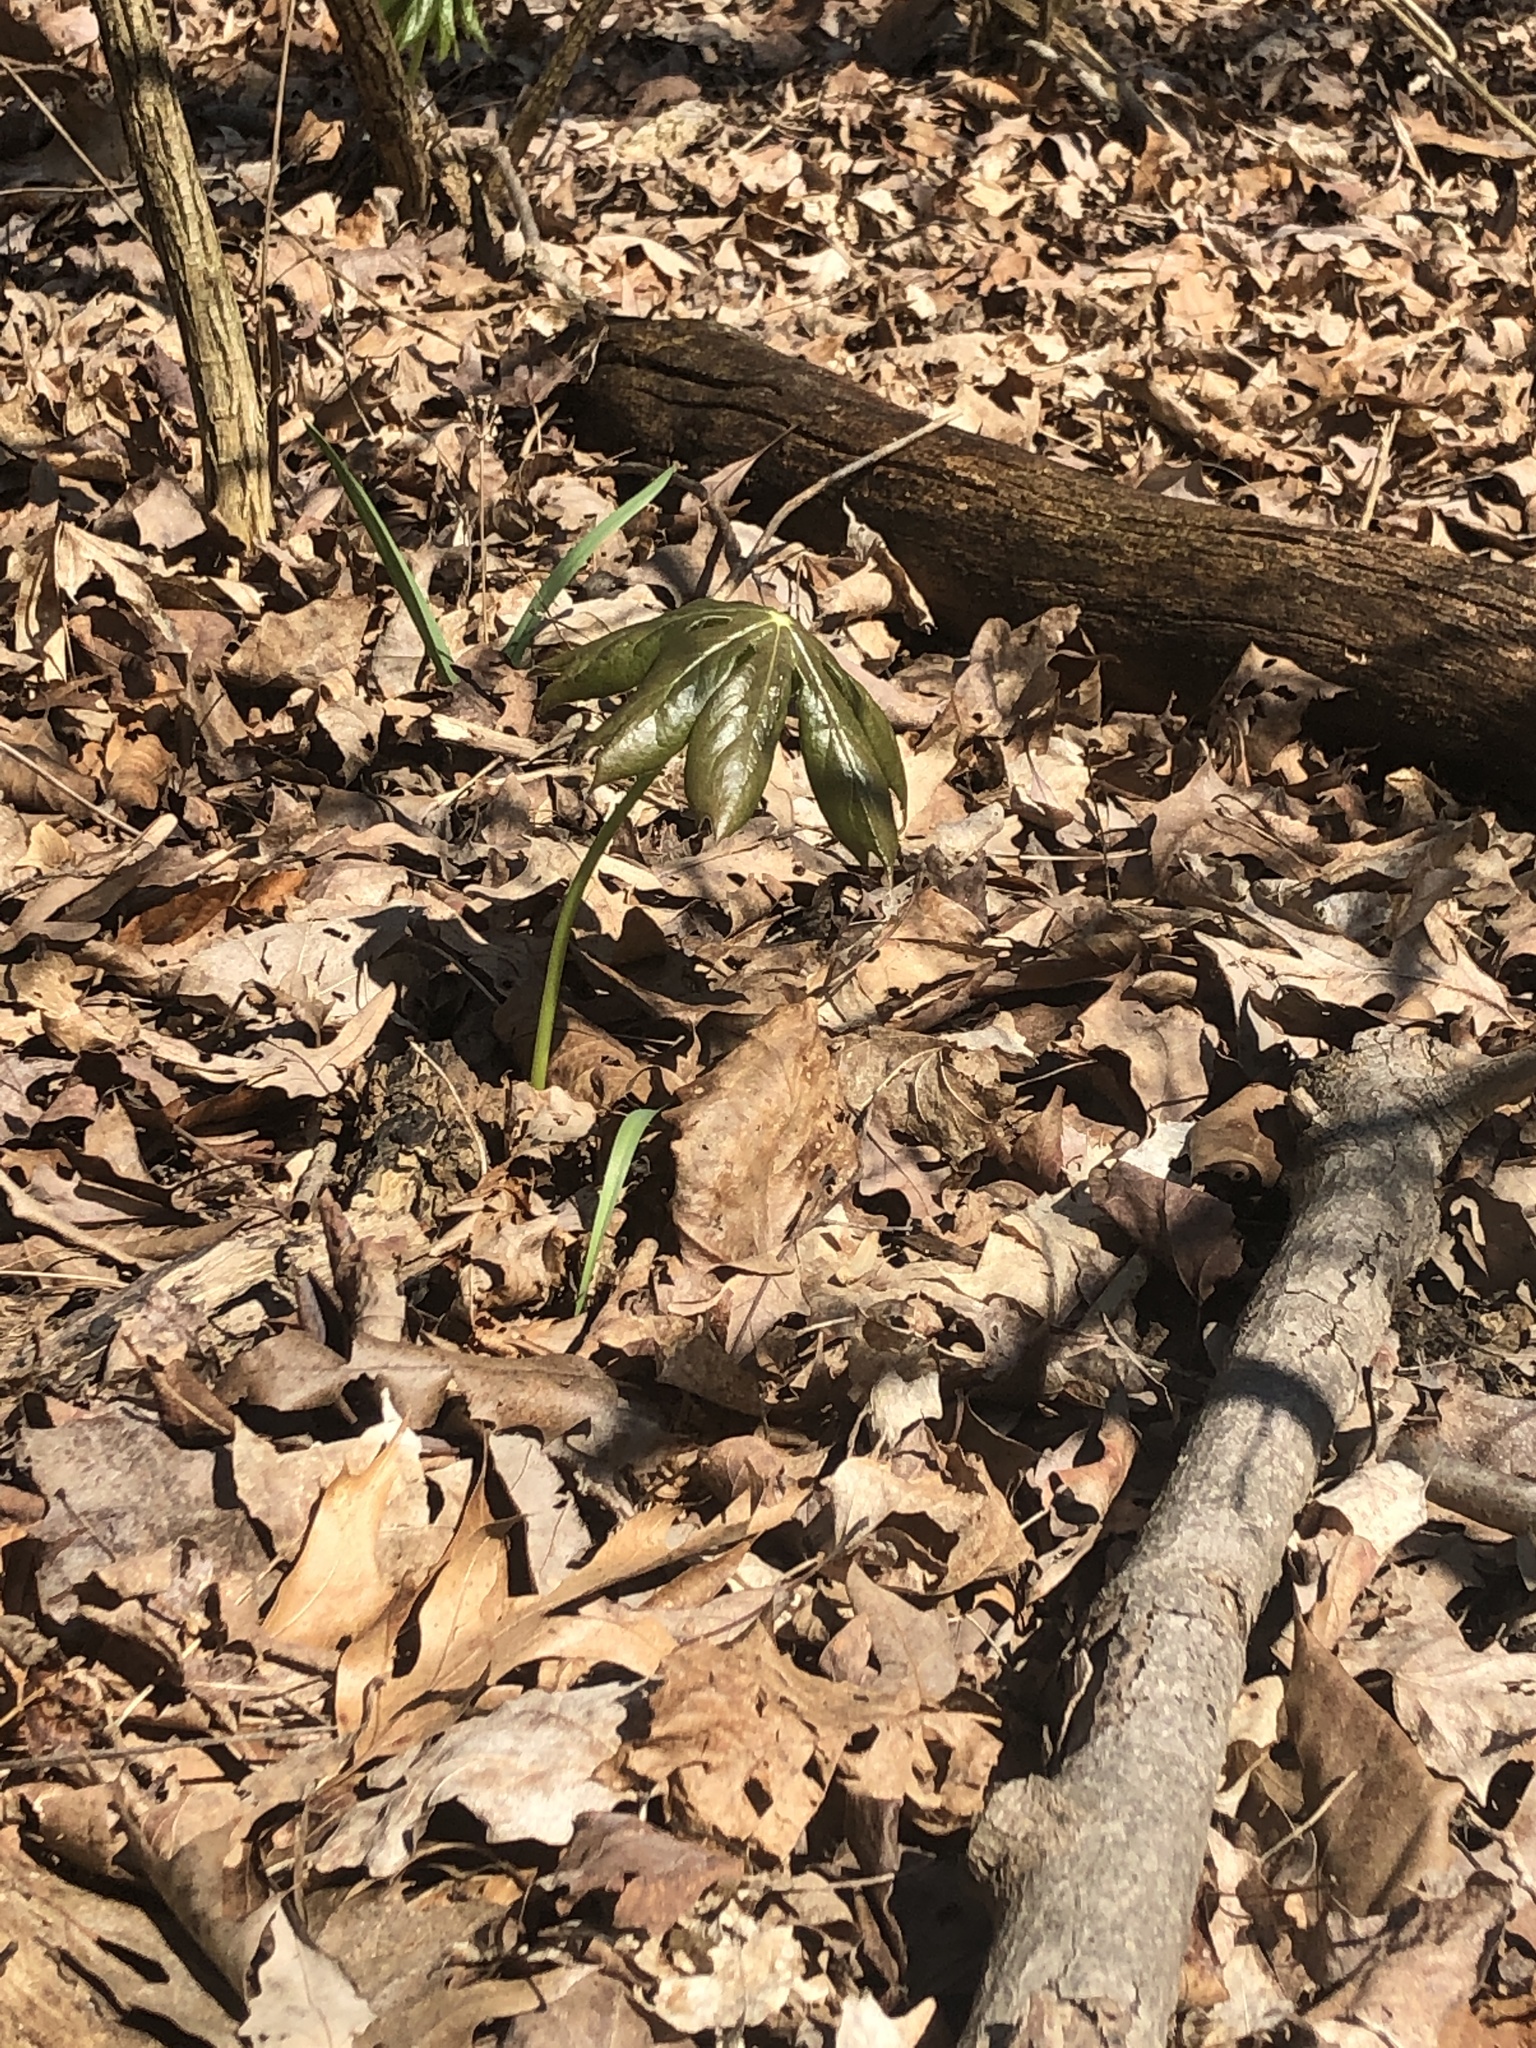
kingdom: Plantae
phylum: Tracheophyta
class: Magnoliopsida
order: Ranunculales
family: Berberidaceae
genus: Podophyllum
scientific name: Podophyllum peltatum
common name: Wild mandrake
